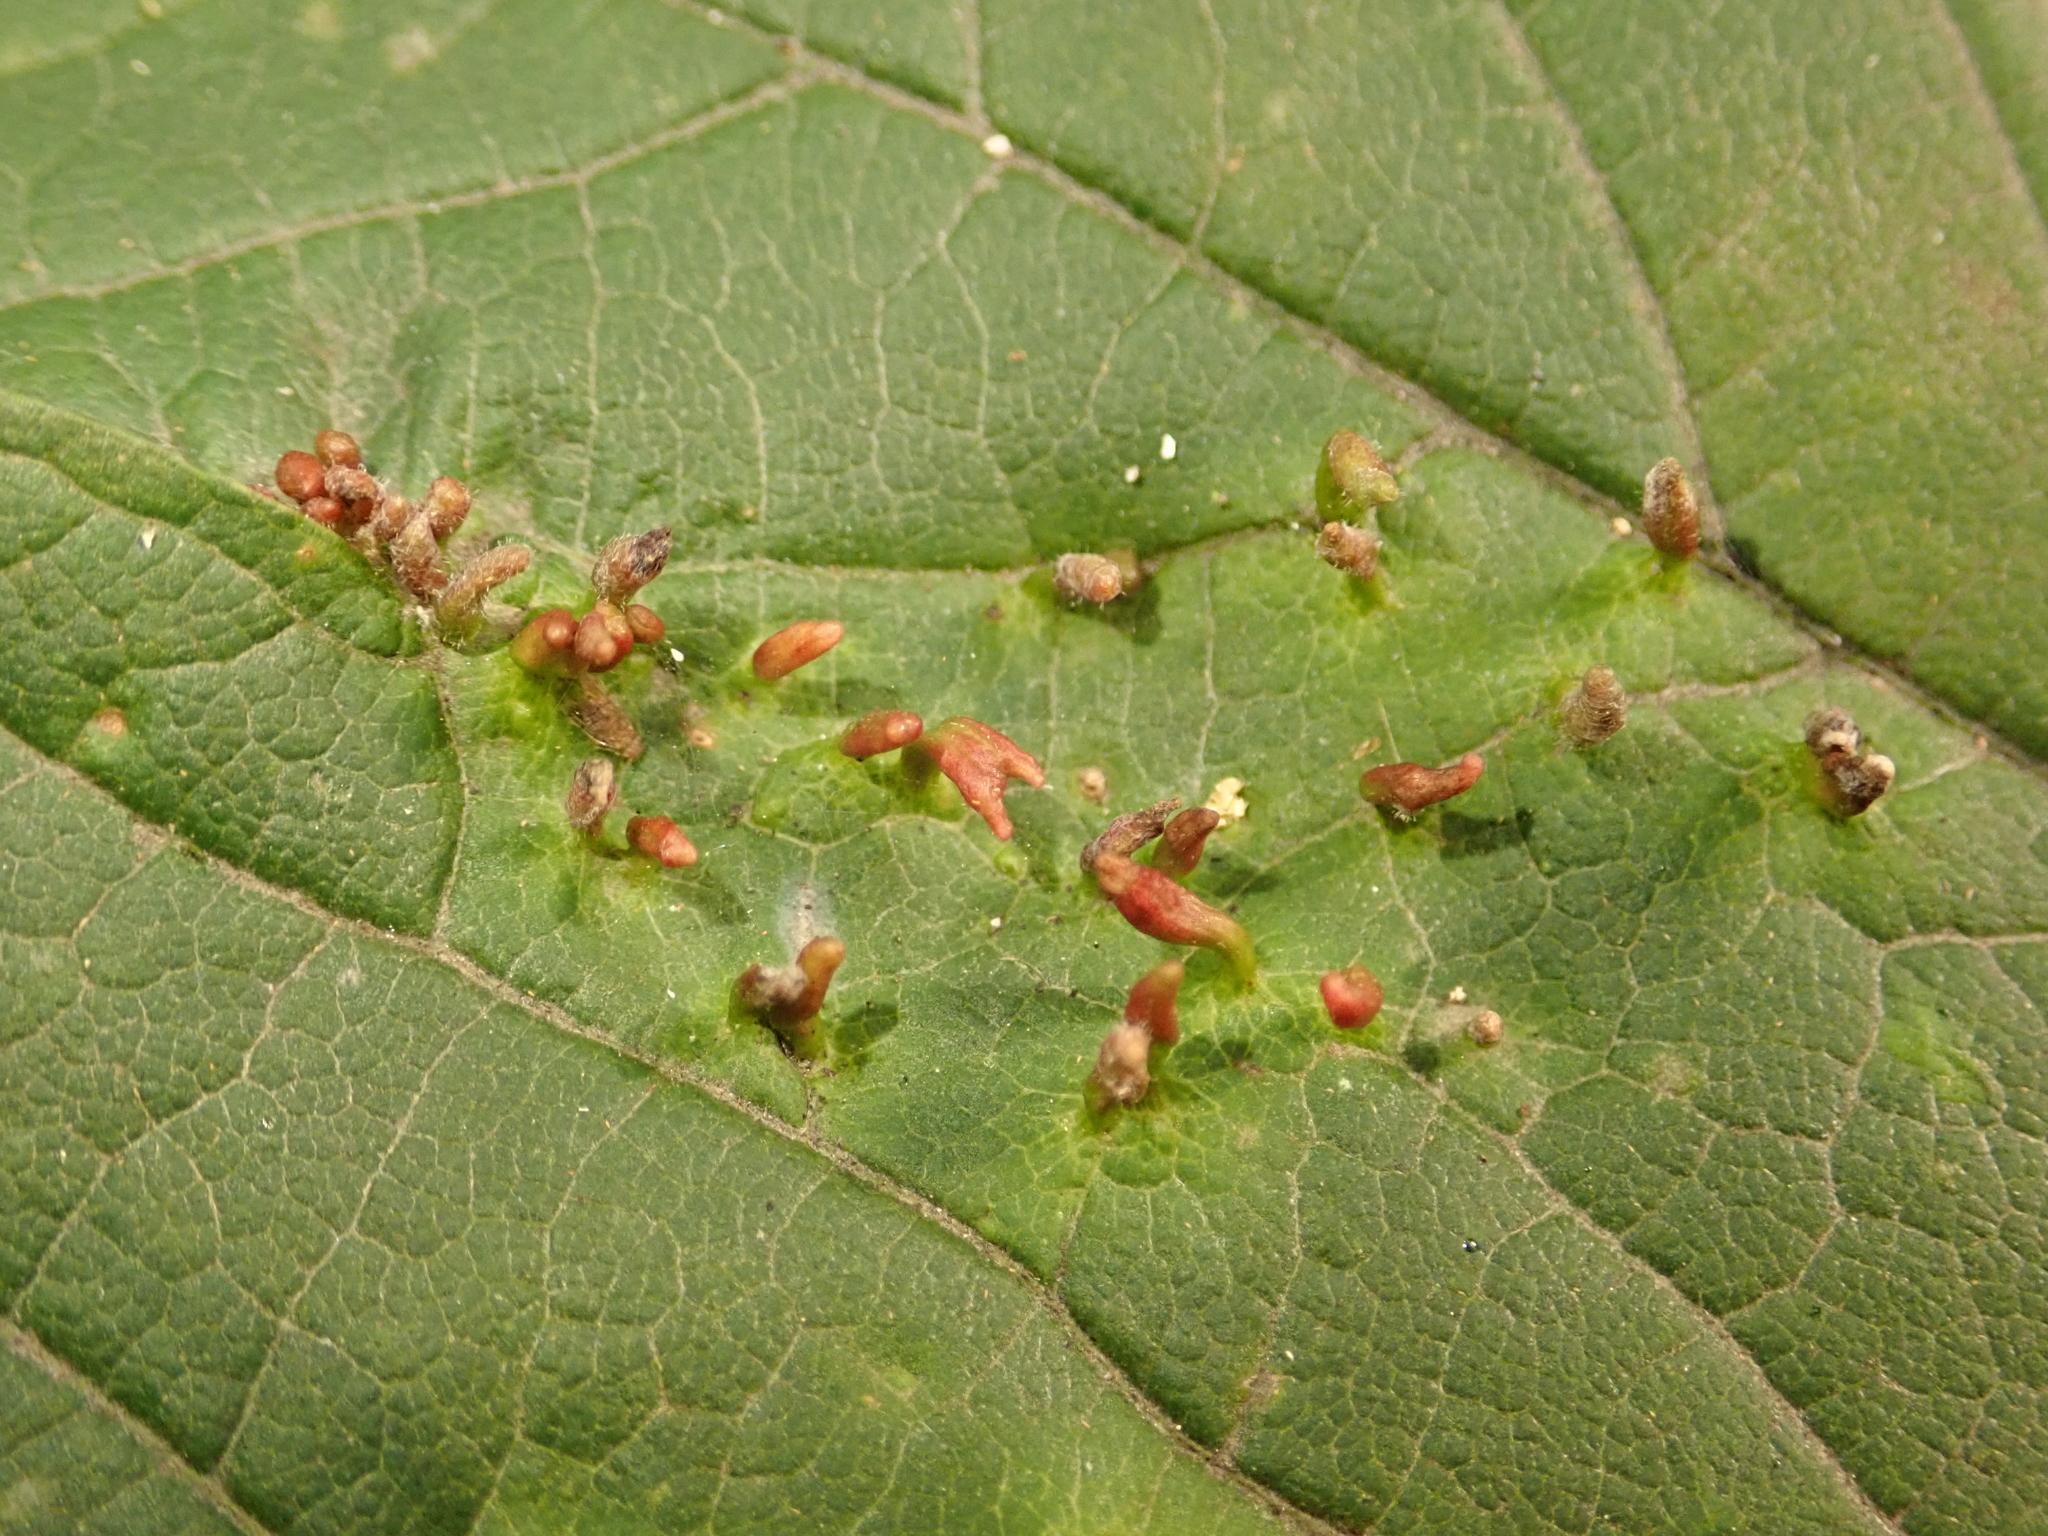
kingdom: Animalia
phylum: Arthropoda
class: Arachnida
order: Trombidiformes
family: Eriophyidae
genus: Aceria
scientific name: Aceria cephaloneus
